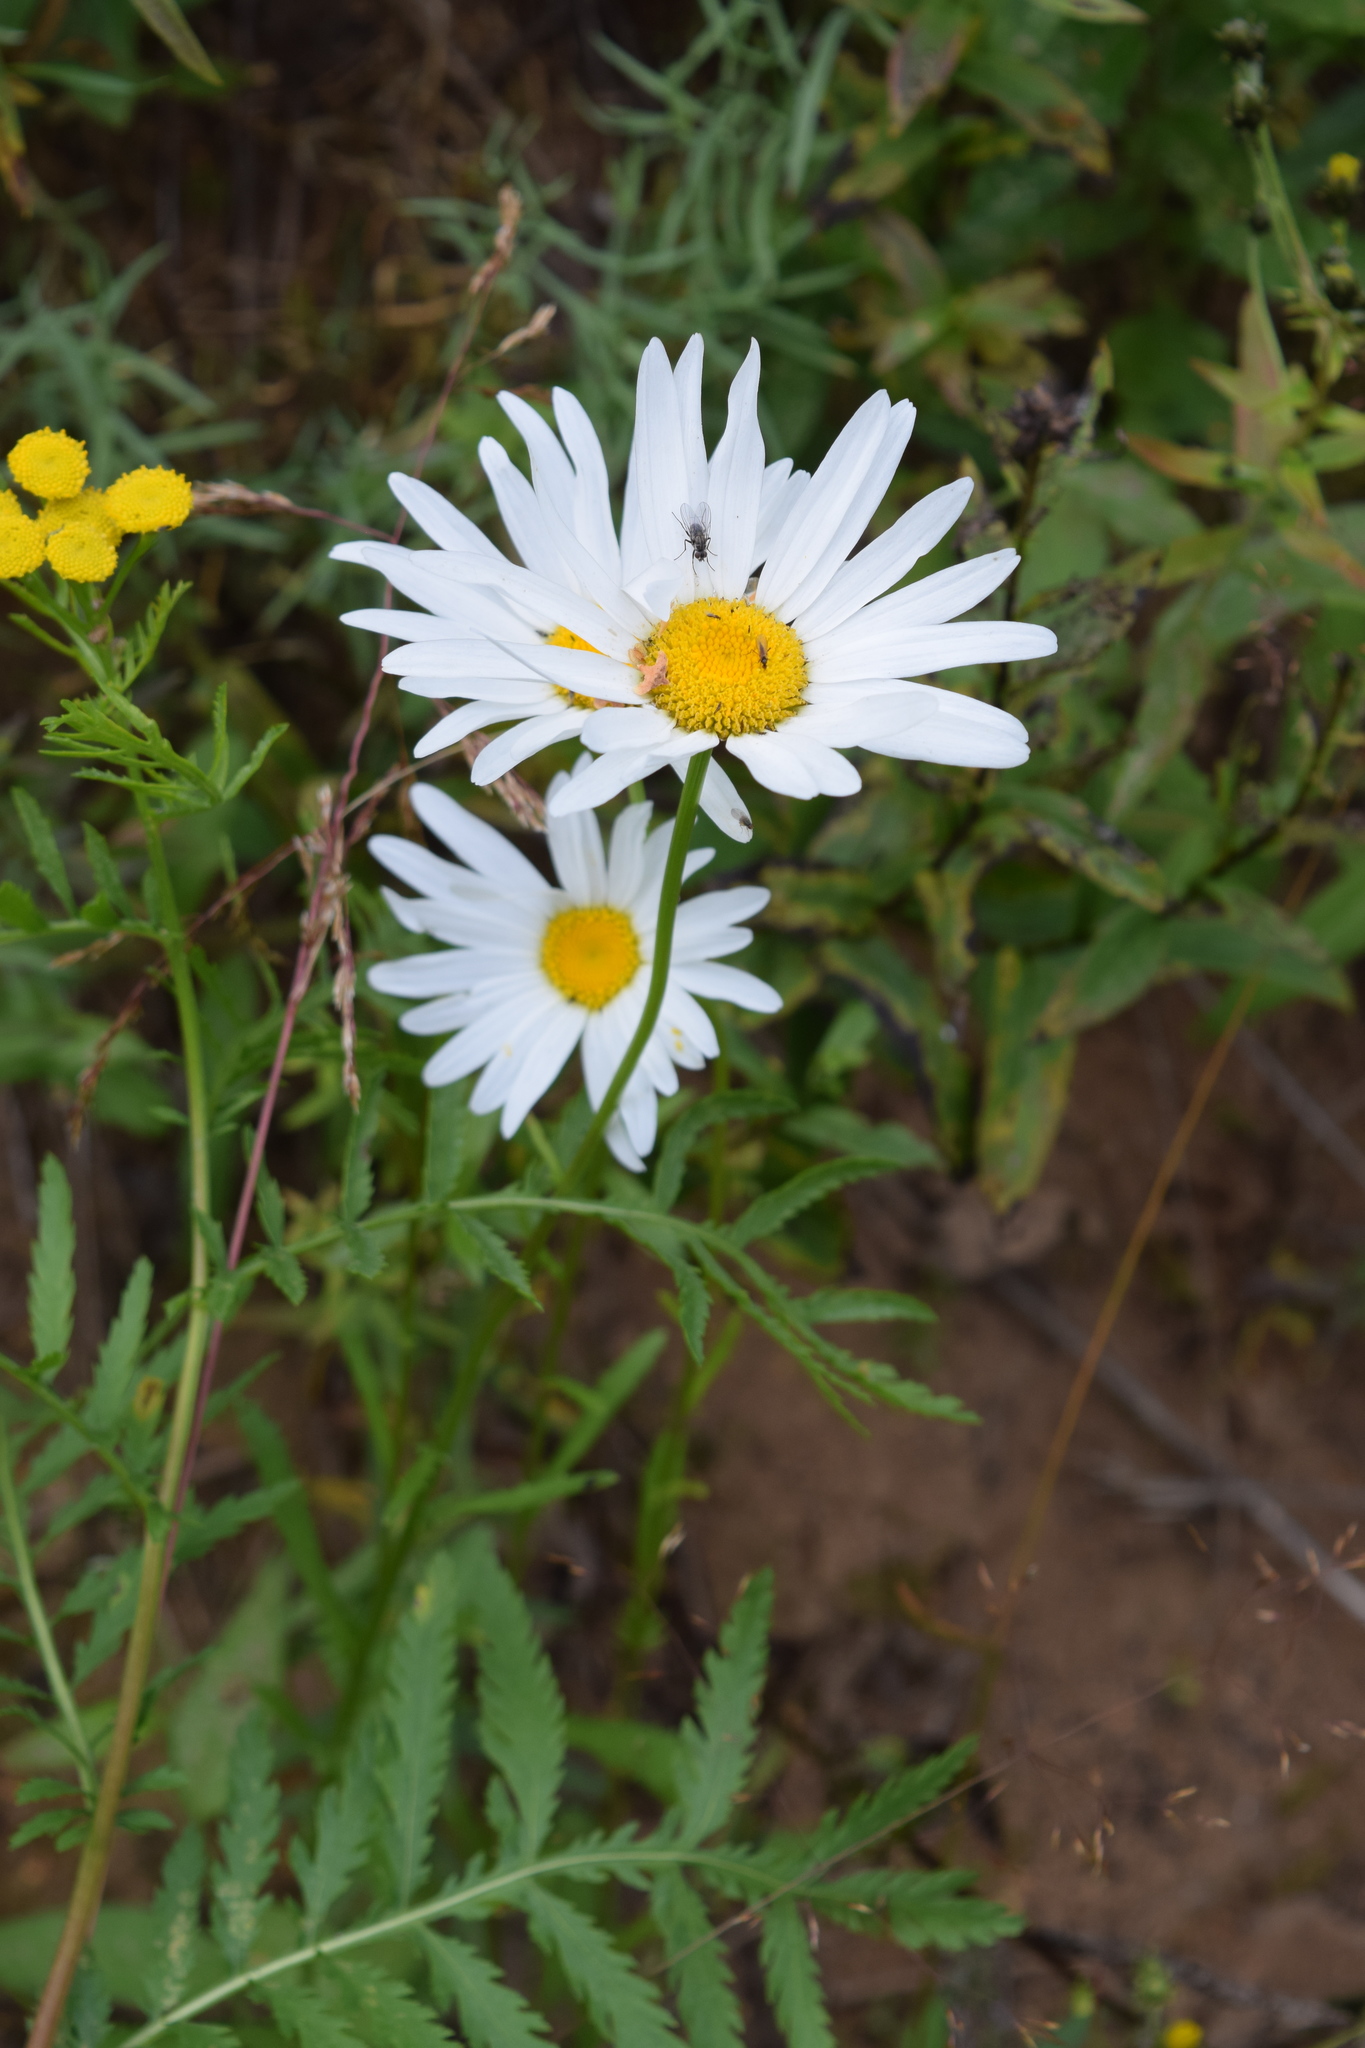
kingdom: Plantae
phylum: Tracheophyta
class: Magnoliopsida
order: Asterales
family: Asteraceae
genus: Leucanthemum
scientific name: Leucanthemum vulgare
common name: Oxeye daisy
